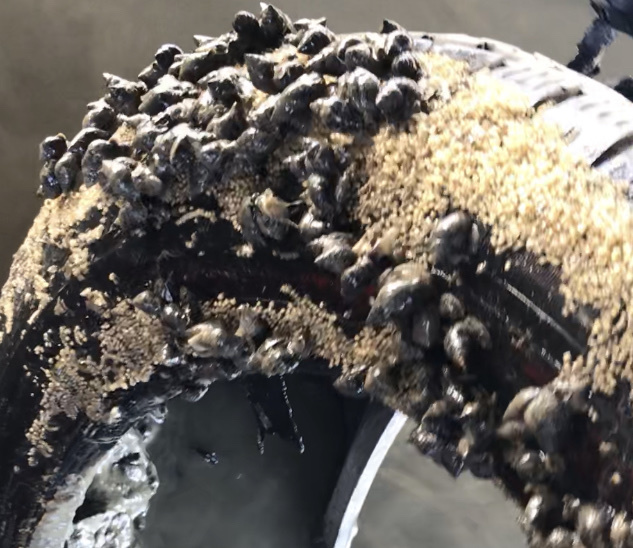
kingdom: Animalia
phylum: Mollusca
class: Gastropoda
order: Neogastropoda
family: Nassariidae
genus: Ilyanassa
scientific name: Ilyanassa obsoleta
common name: Eastern mudsnail
